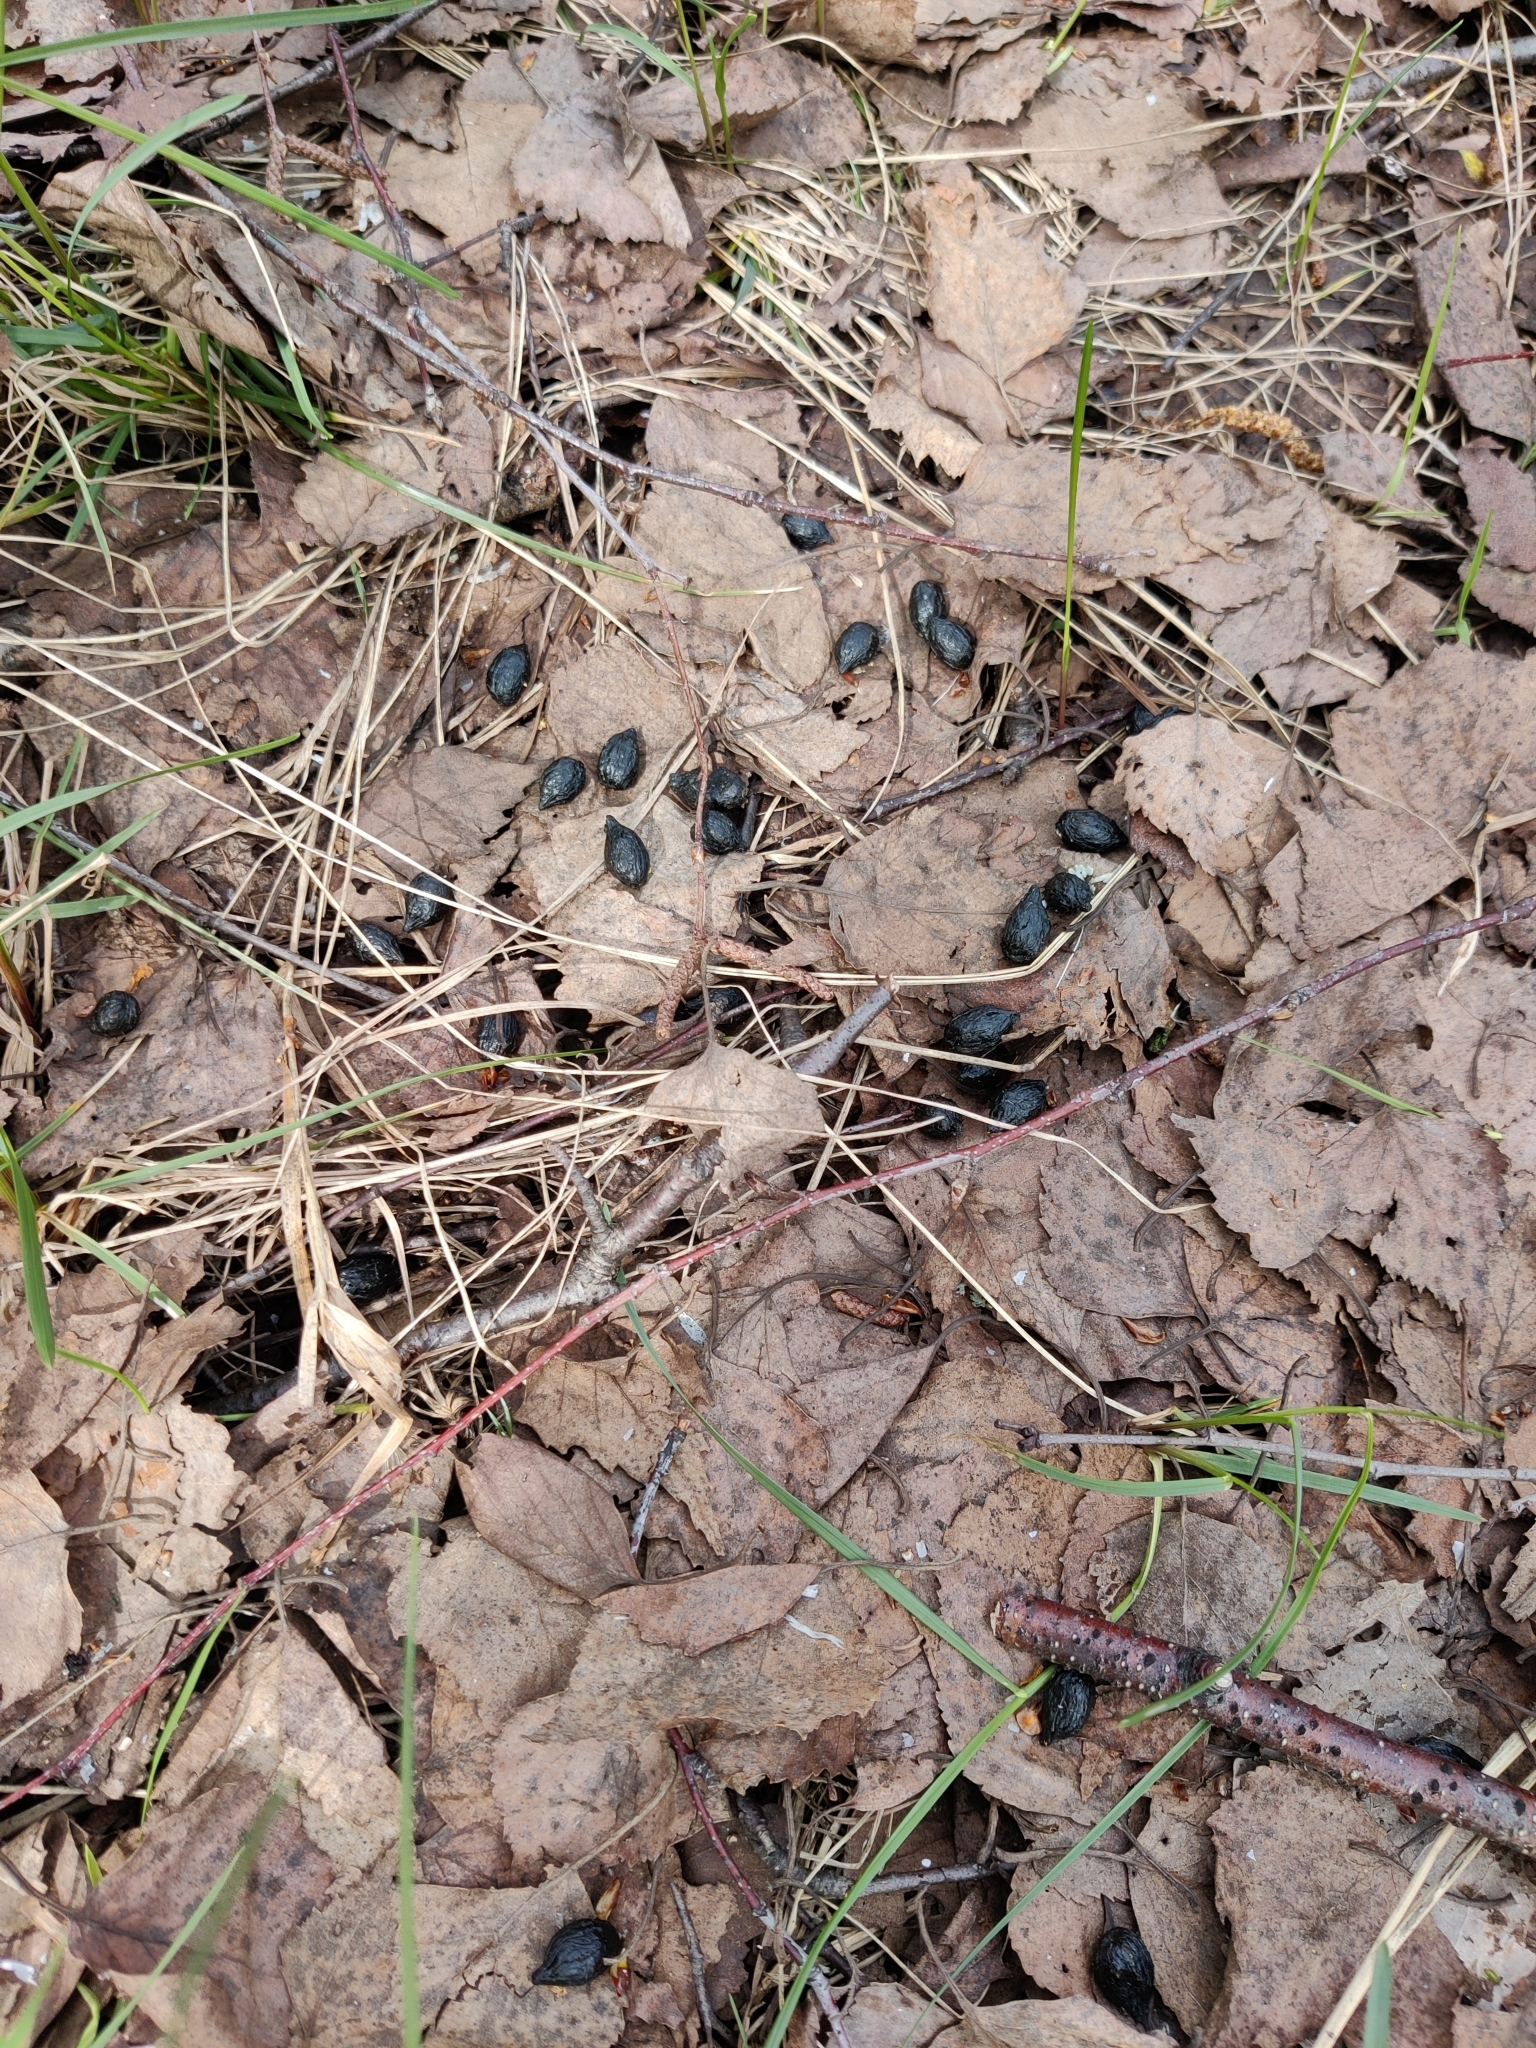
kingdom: Animalia
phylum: Chordata
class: Mammalia
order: Artiodactyla
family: Cervidae
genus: Capreolus
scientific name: Capreolus capreolus
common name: Western roe deer
